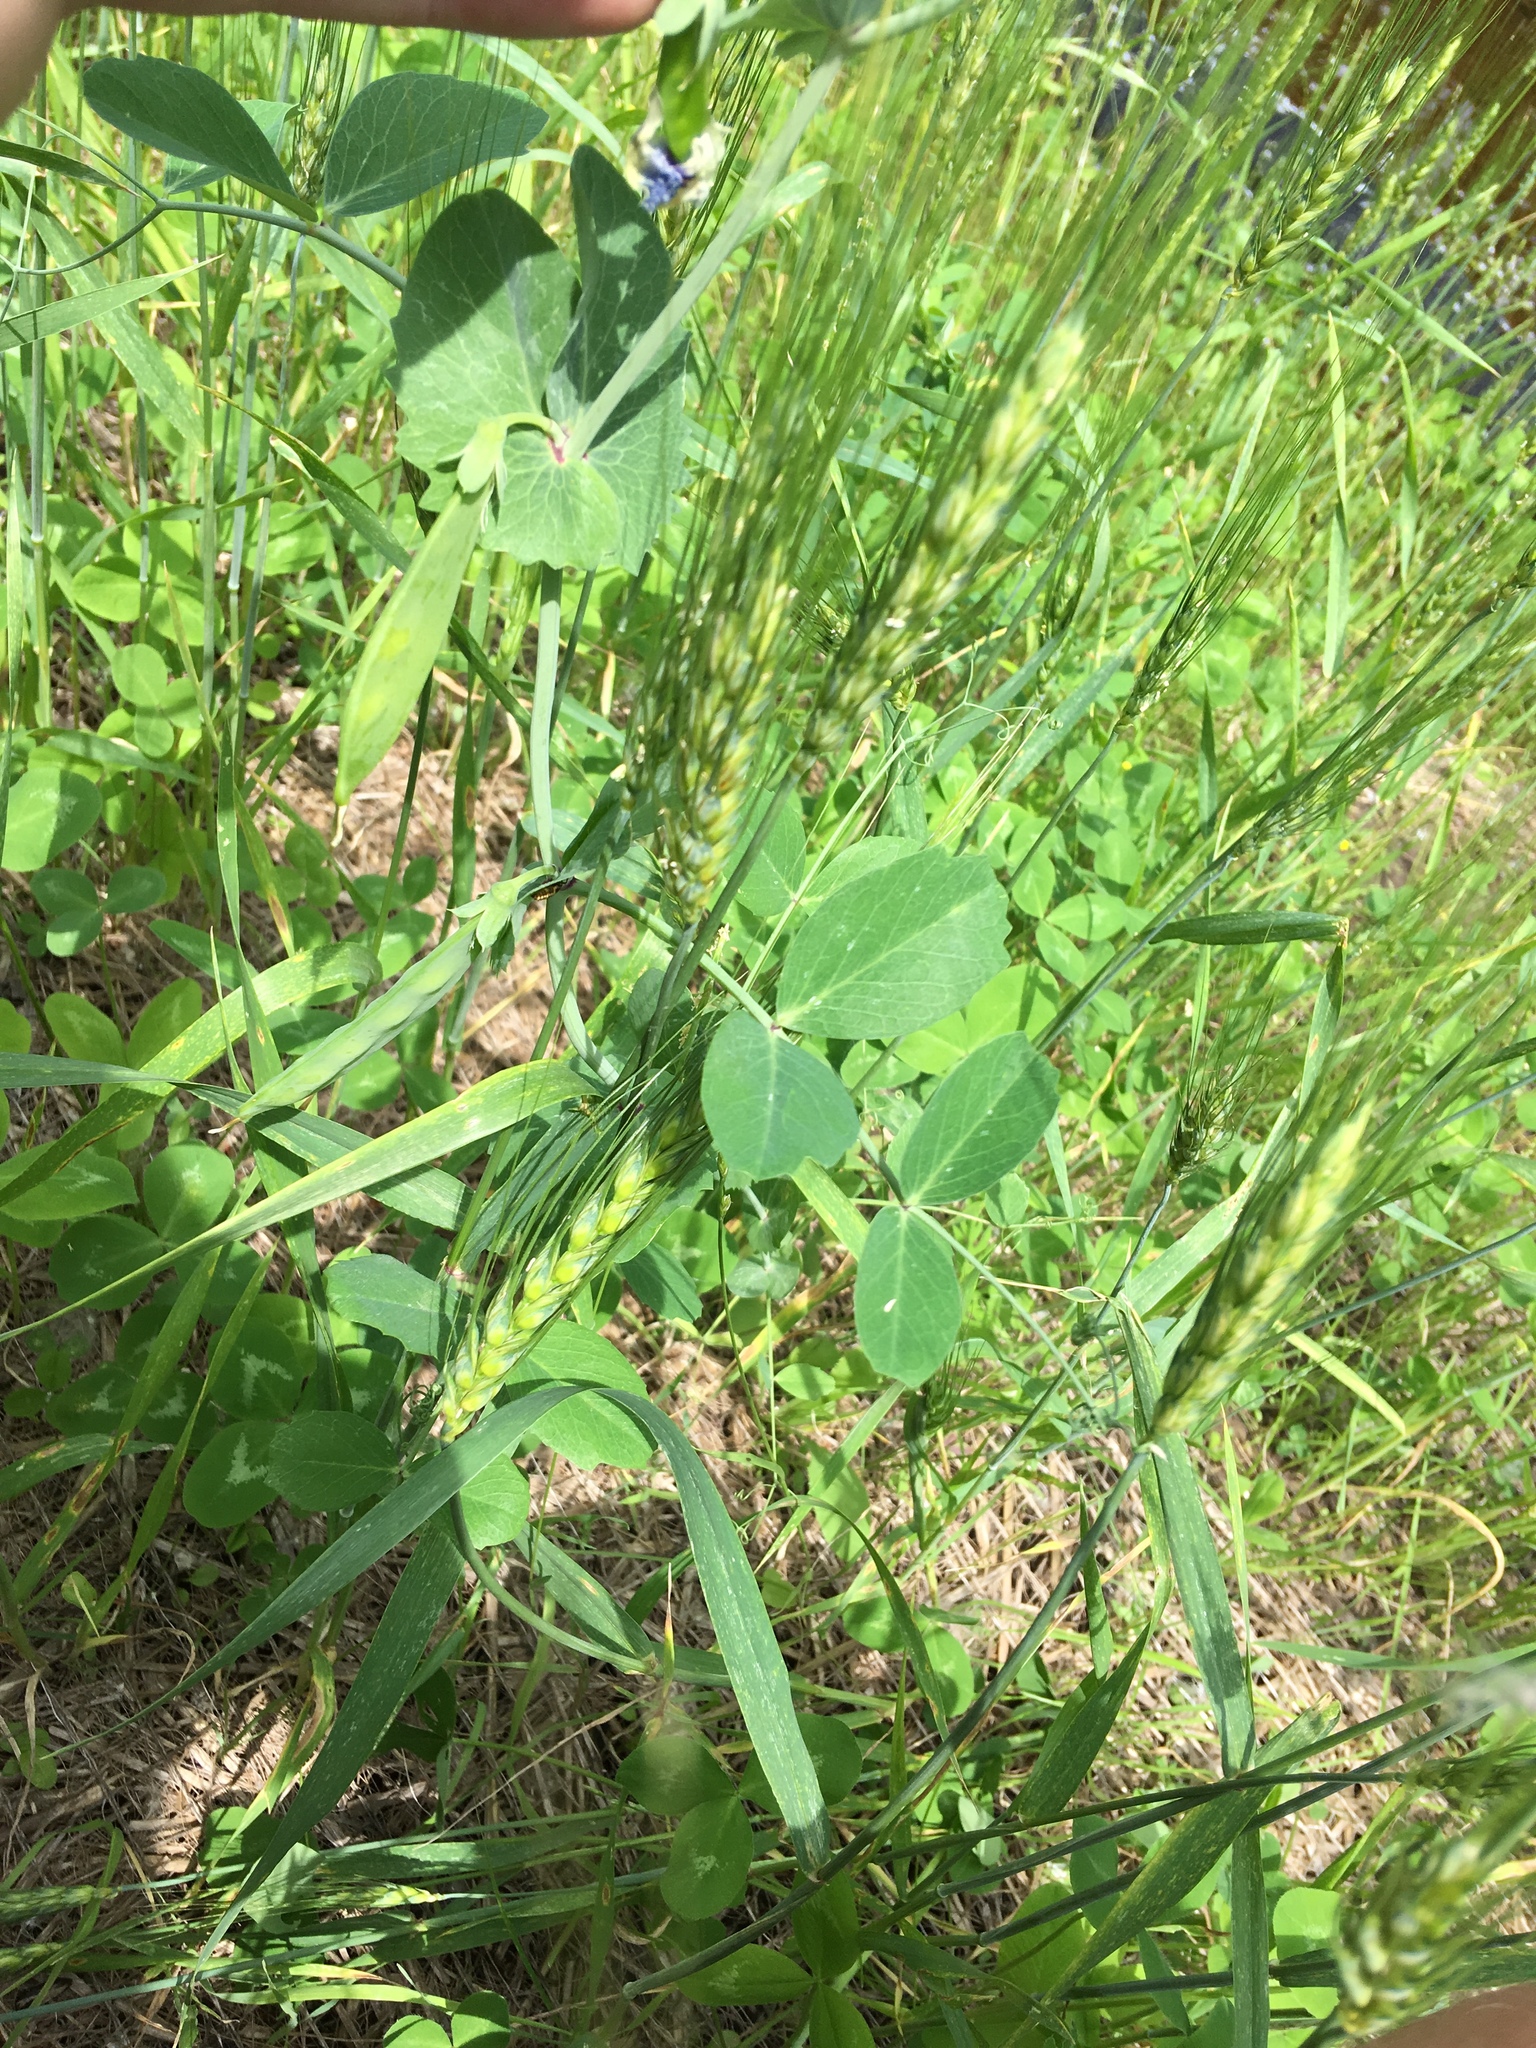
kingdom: Plantae
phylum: Tracheophyta
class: Magnoliopsida
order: Fabales
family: Fabaceae
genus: Lathyrus
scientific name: Lathyrus oleraceus
